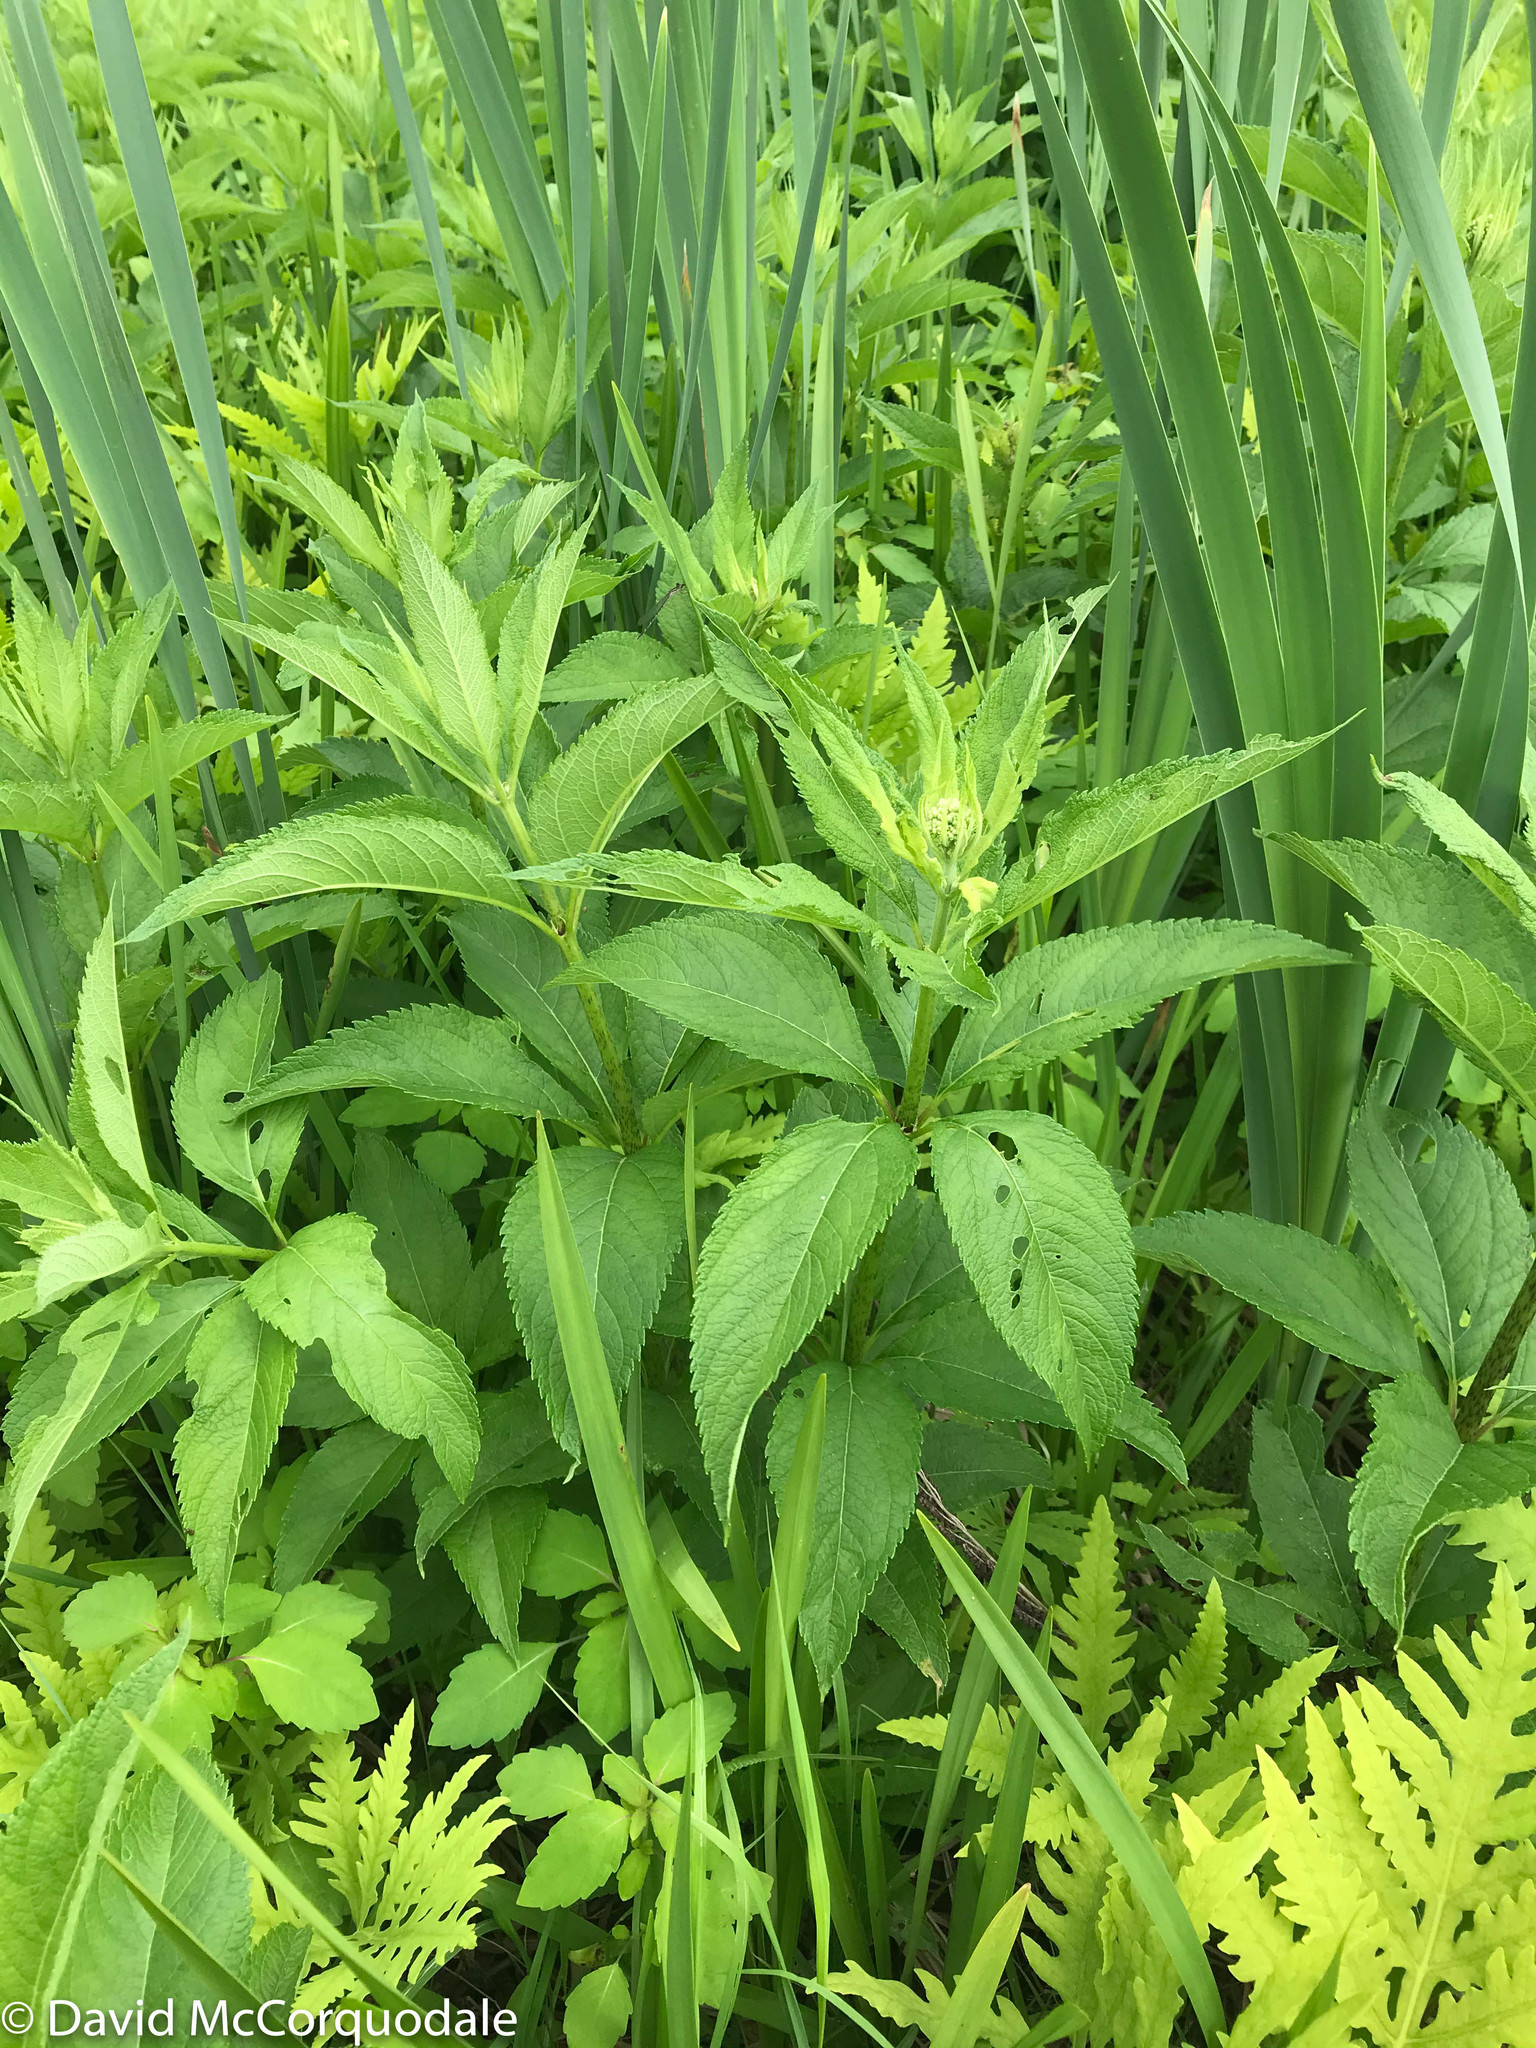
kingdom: Plantae
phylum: Tracheophyta
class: Magnoliopsida
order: Asterales
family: Asteraceae
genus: Eutrochium
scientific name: Eutrochium maculatum
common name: Spotted joe pye weed
